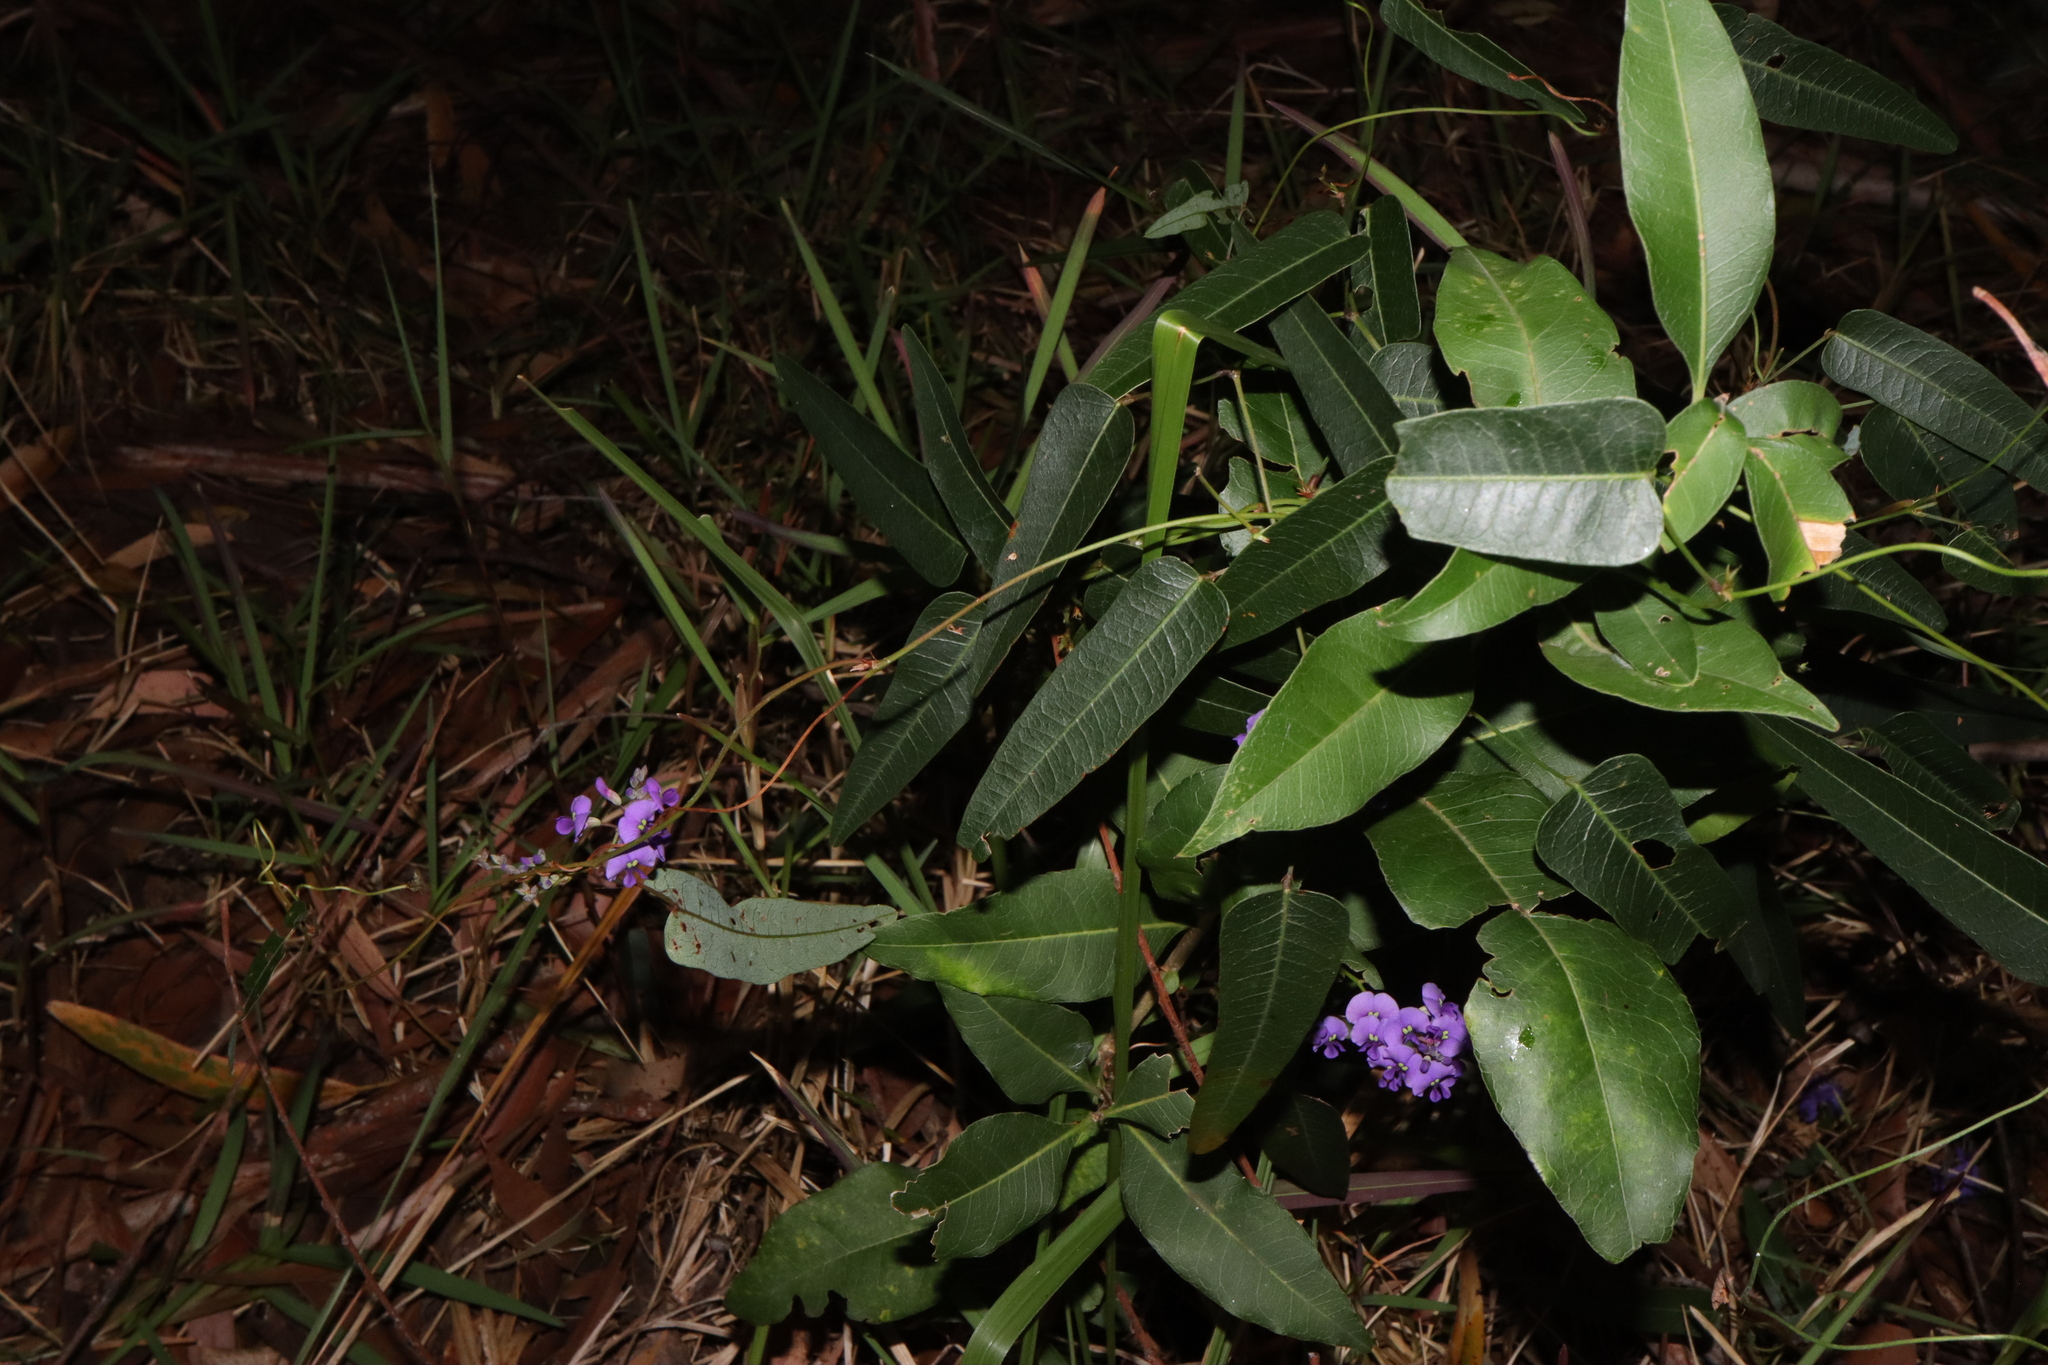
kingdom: Plantae
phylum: Tracheophyta
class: Magnoliopsida
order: Fabales
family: Fabaceae
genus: Hardenbergia
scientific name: Hardenbergia violacea
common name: Coral-pea
